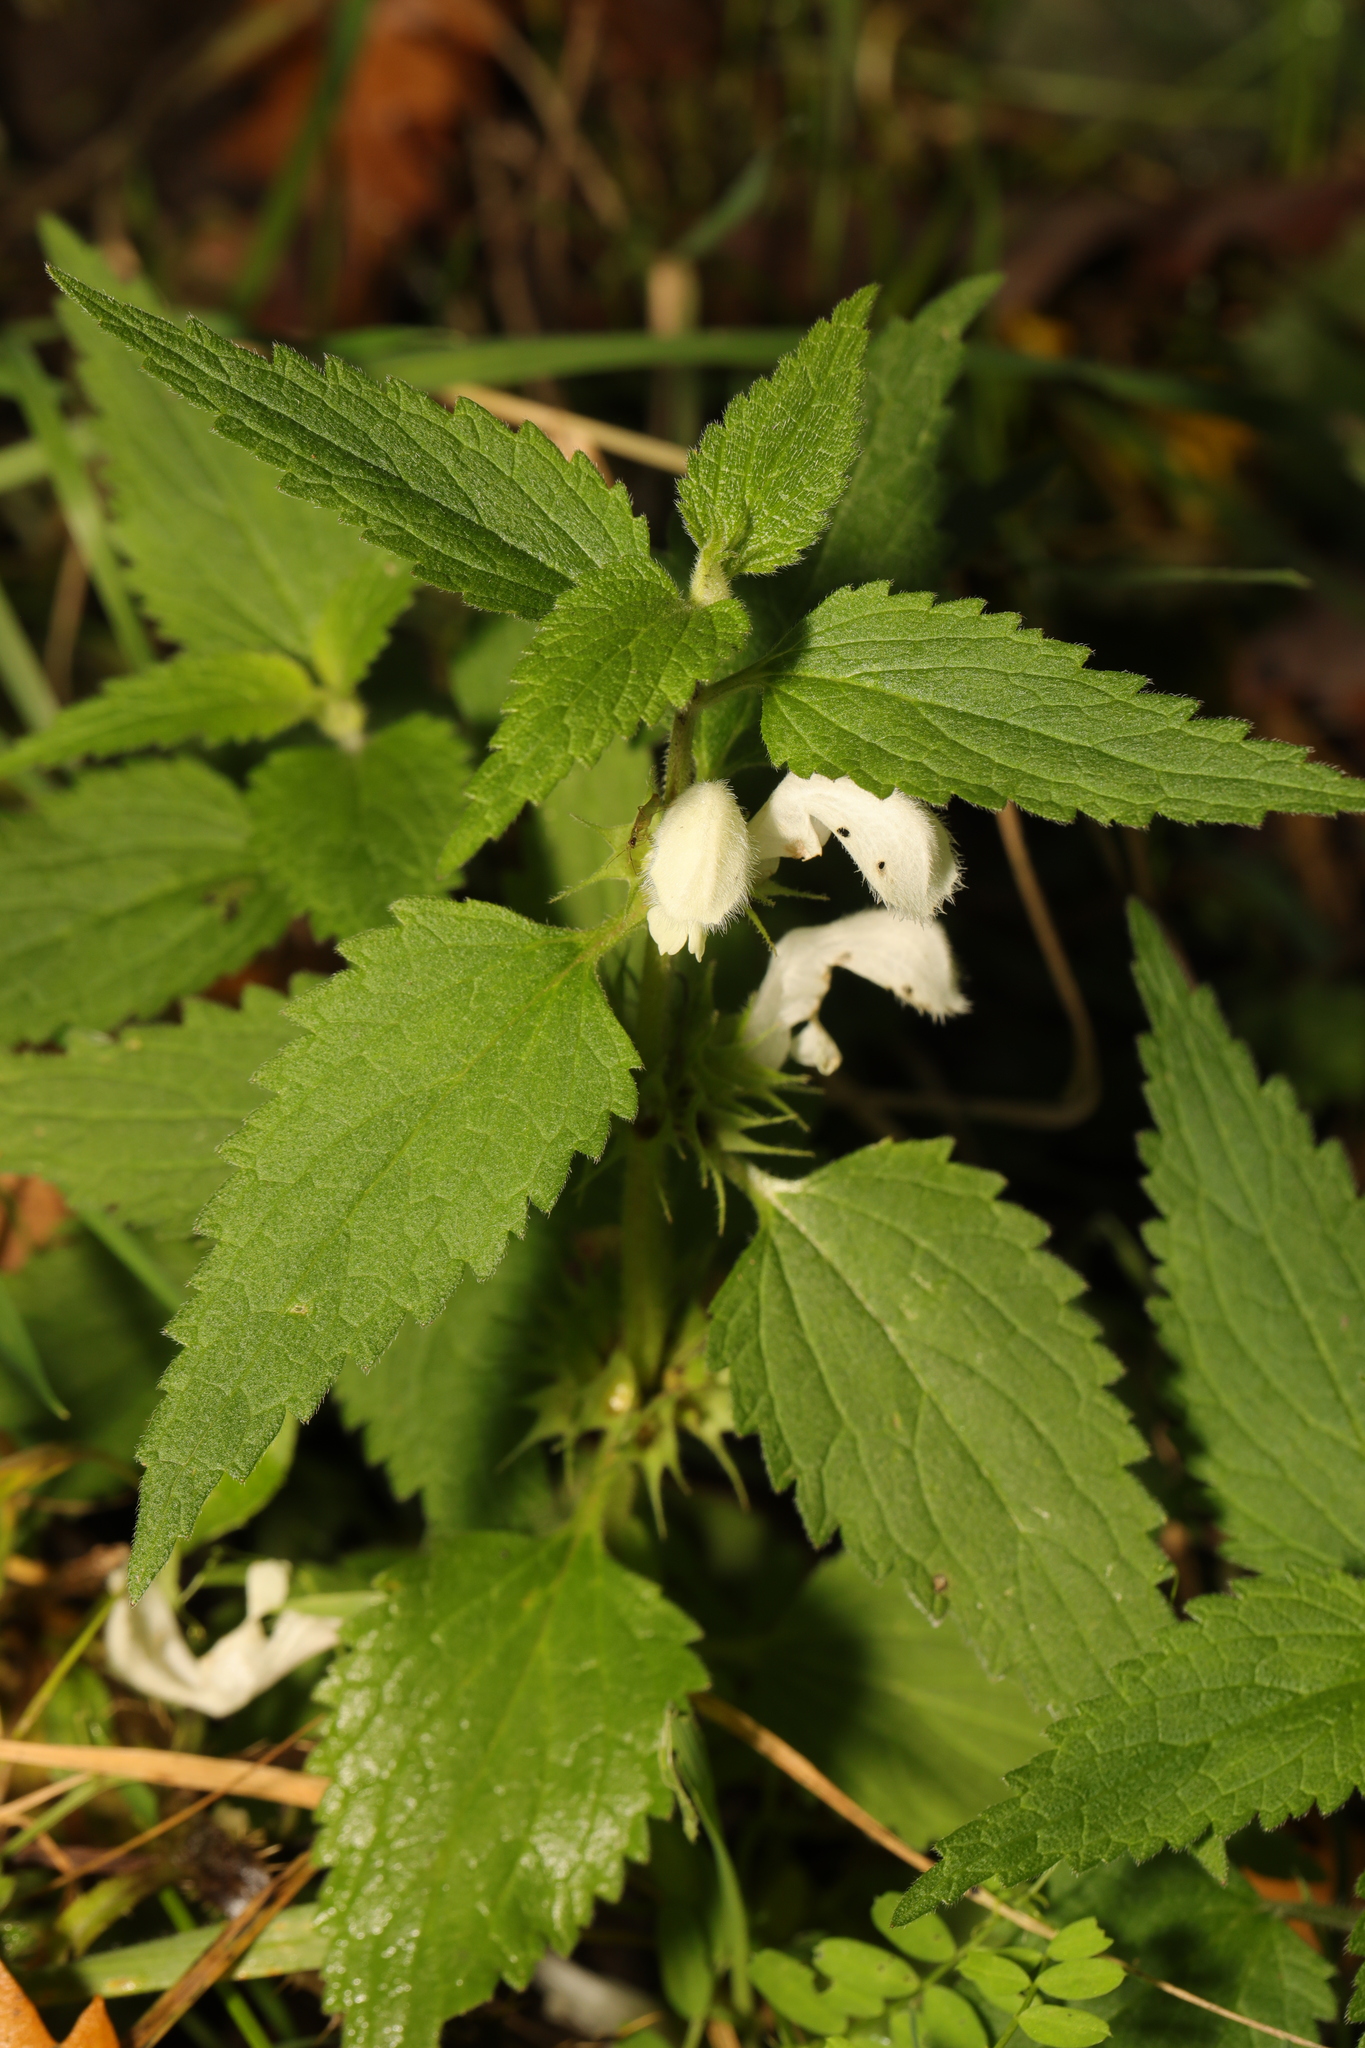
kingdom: Plantae
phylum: Tracheophyta
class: Magnoliopsida
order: Lamiales
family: Lamiaceae
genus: Lamium
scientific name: Lamium album
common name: White dead-nettle
